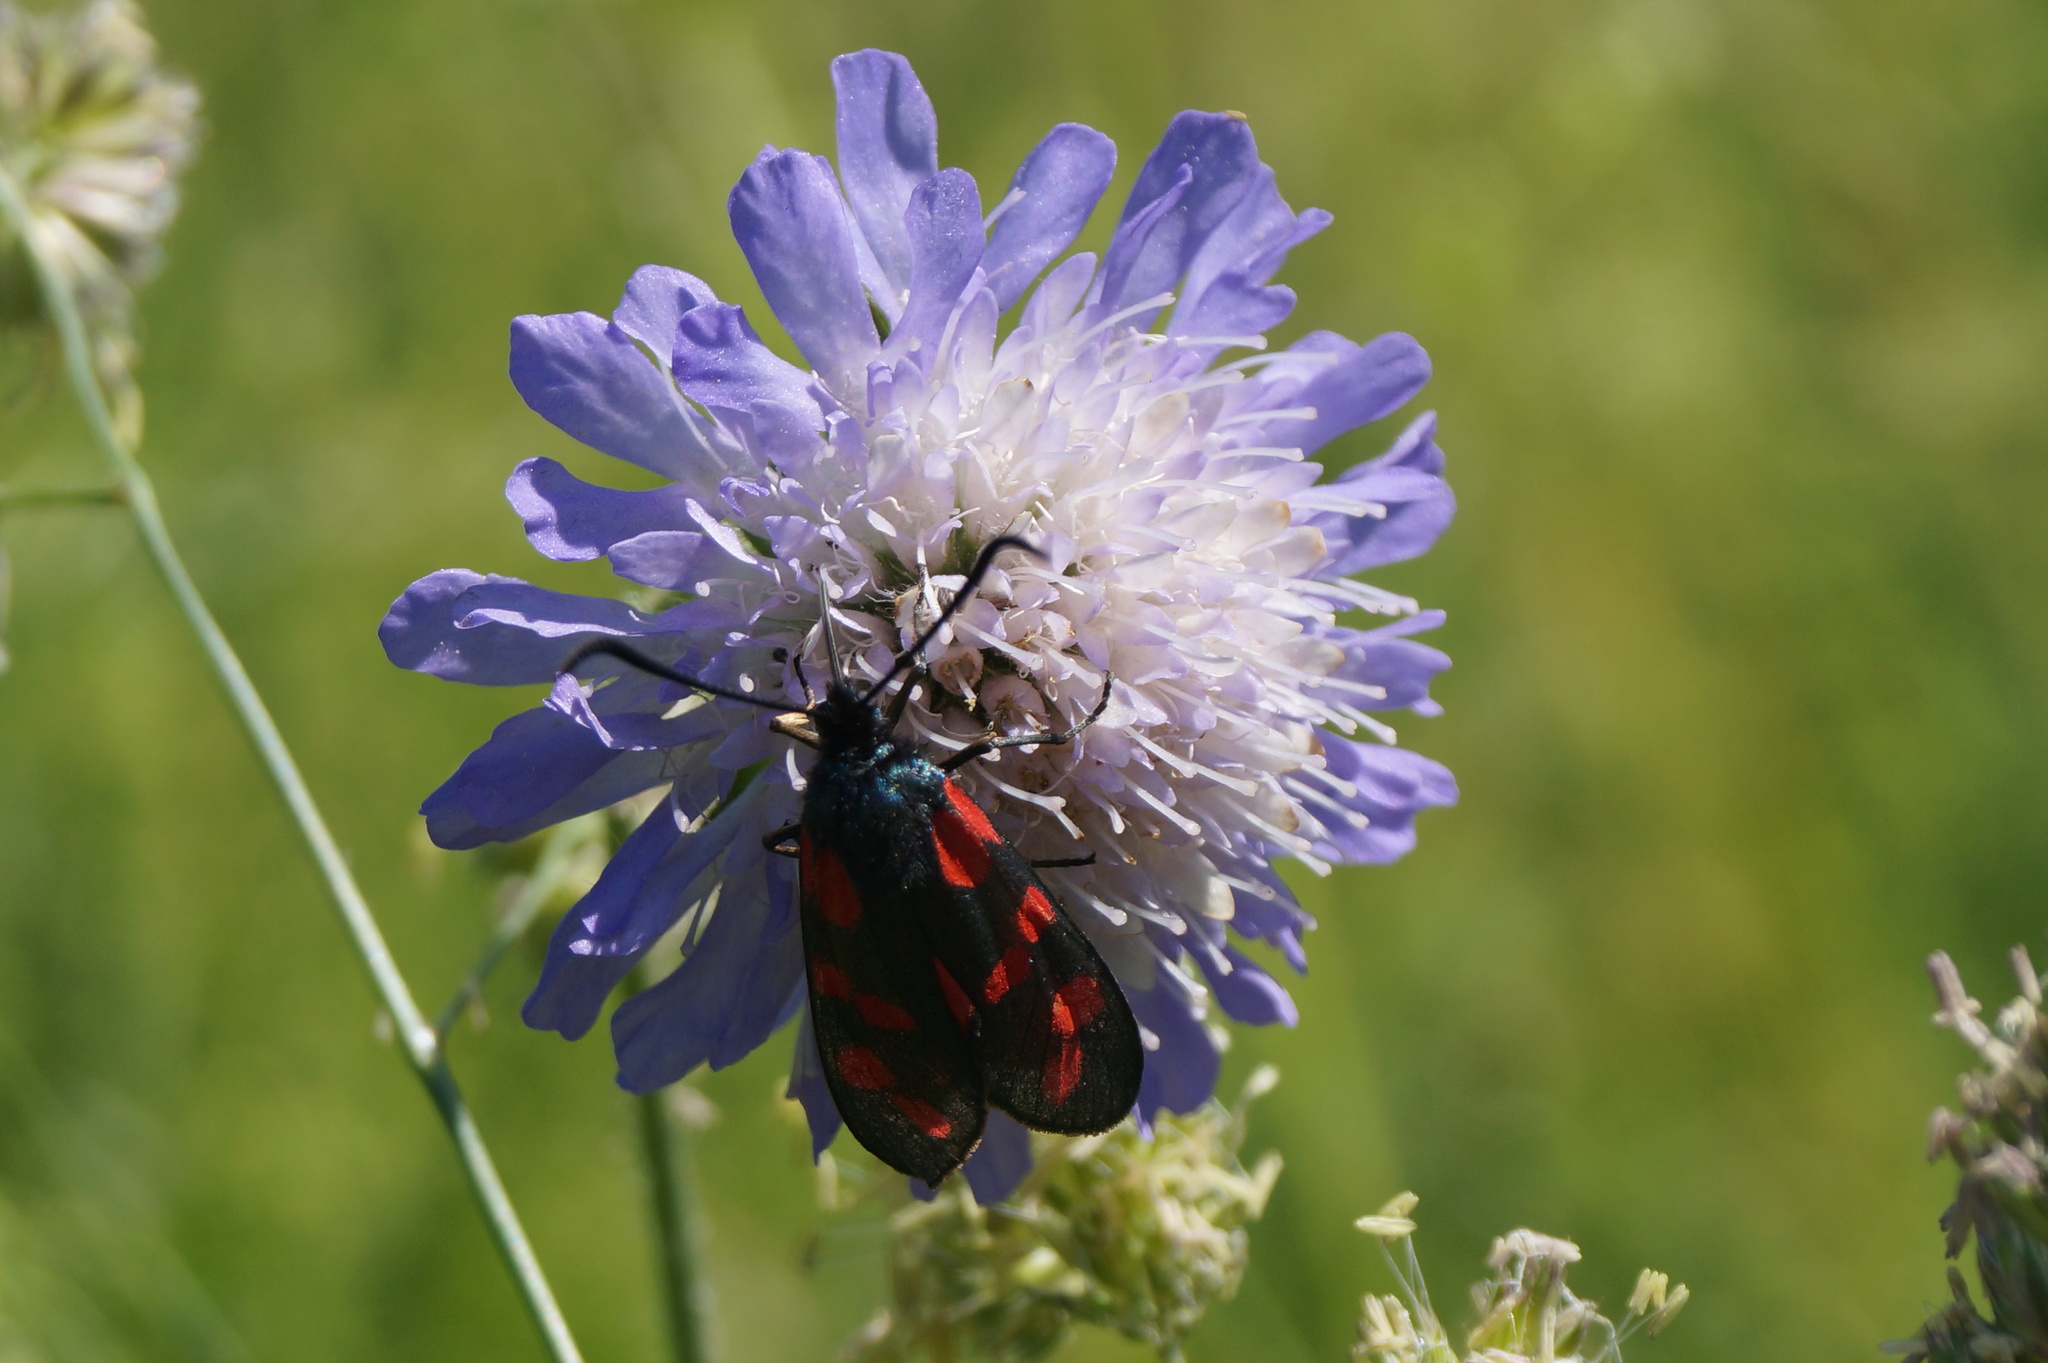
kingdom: Animalia
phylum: Arthropoda
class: Insecta
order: Lepidoptera
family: Zygaenidae
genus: Zygaena
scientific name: Zygaena filipendulae
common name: Six-spot burnet
